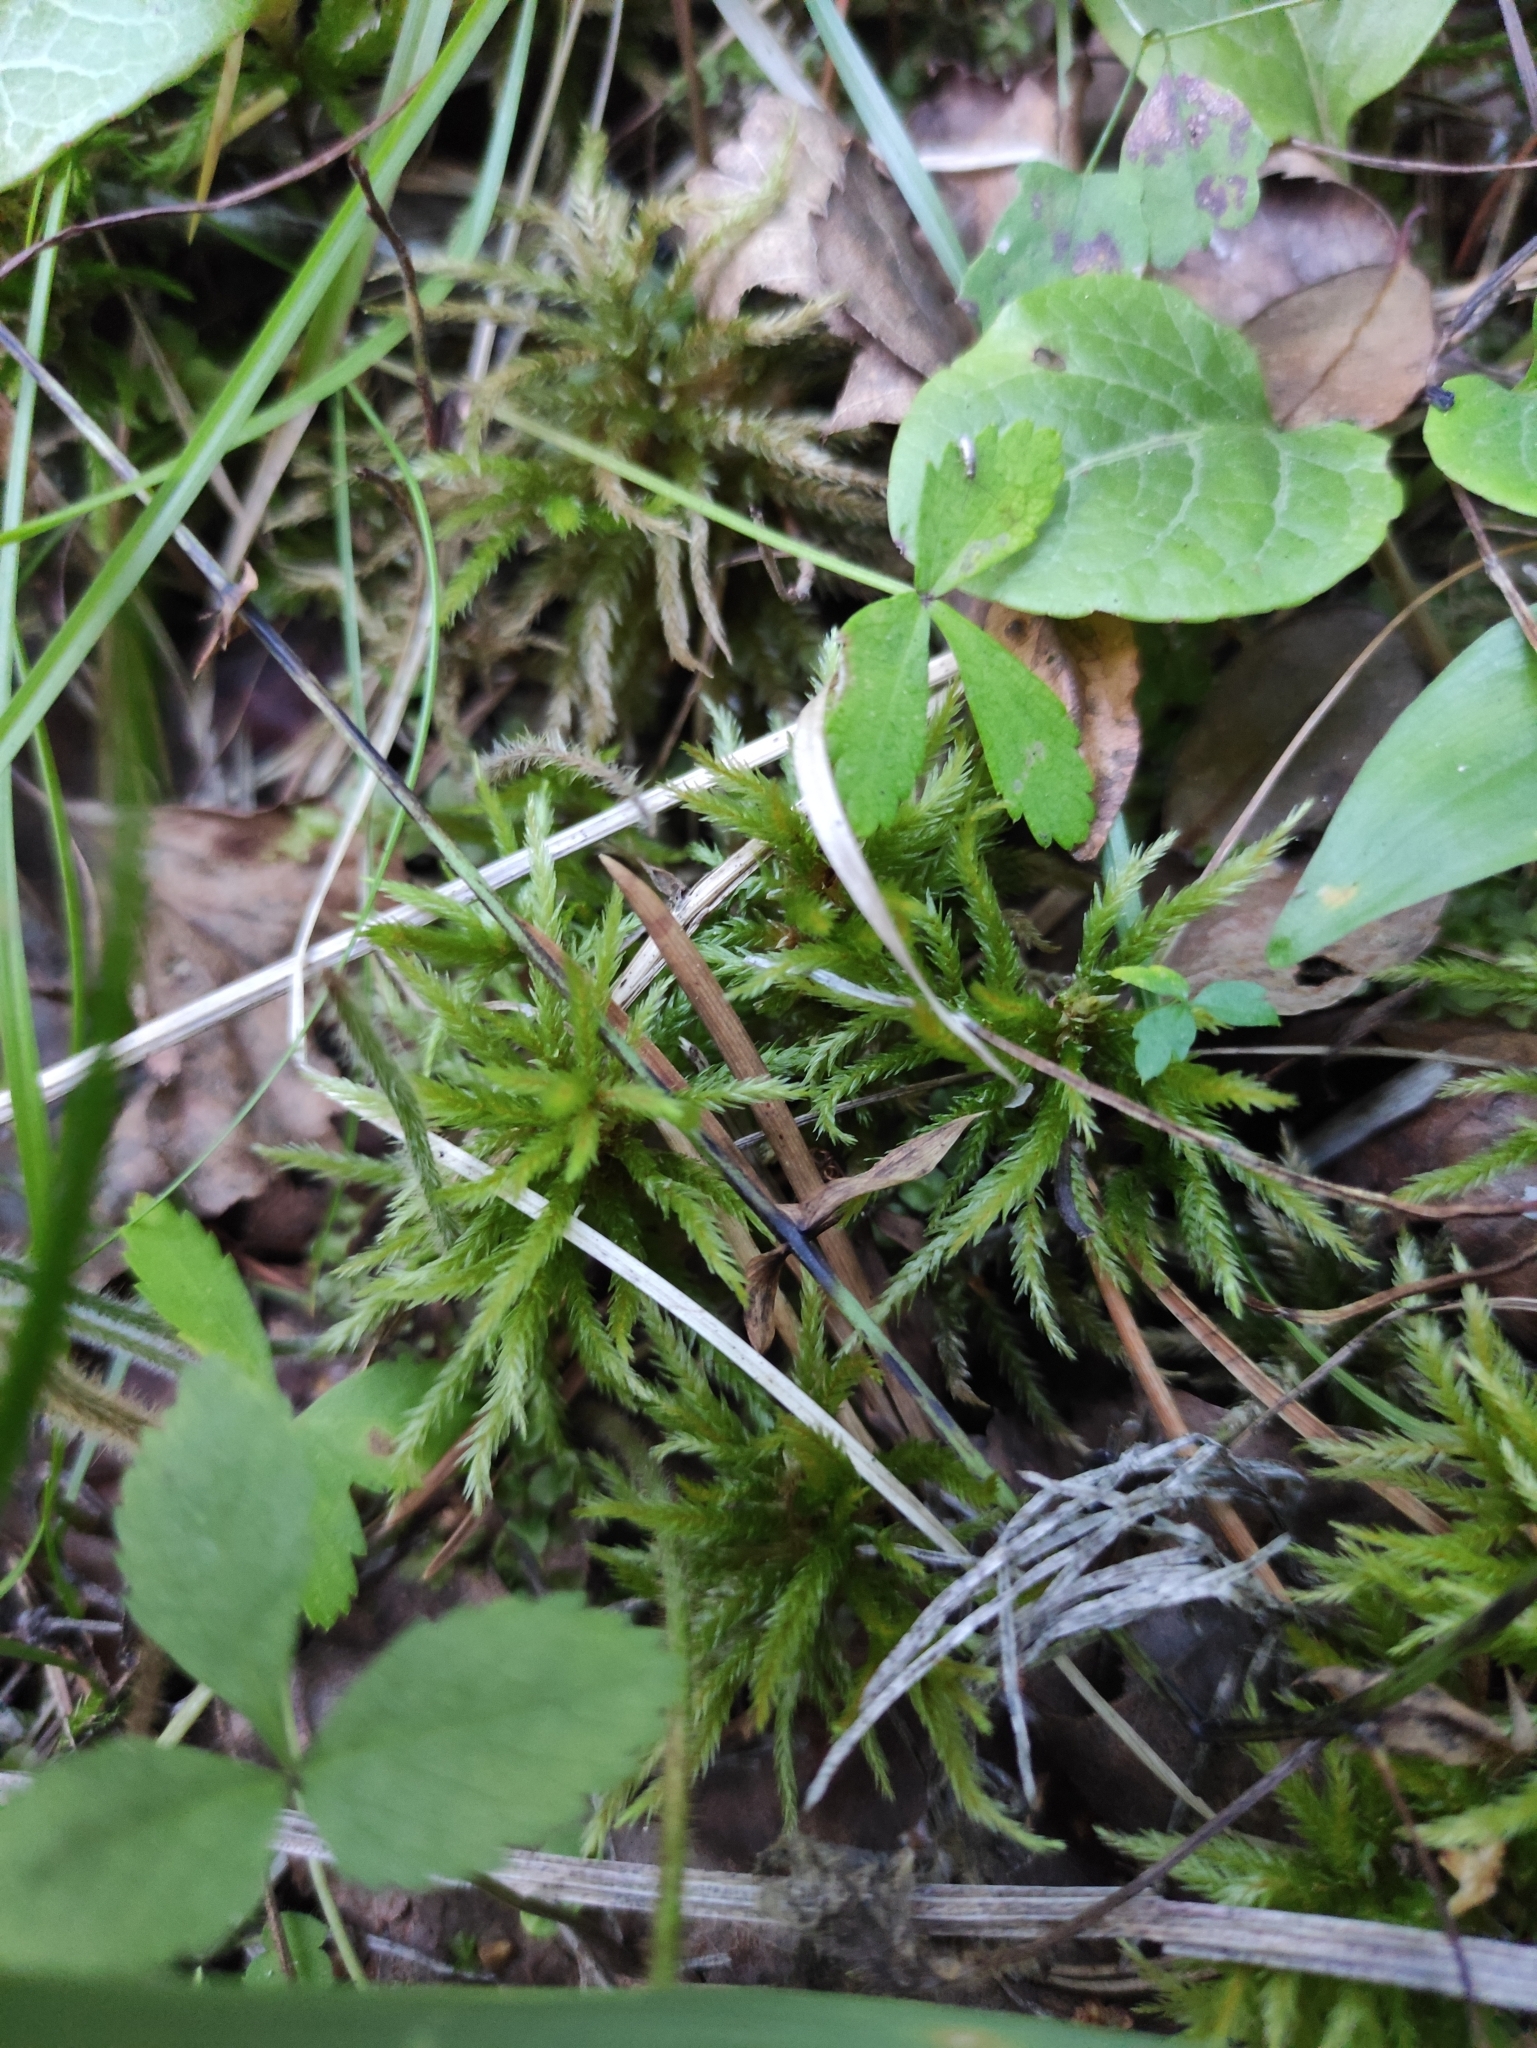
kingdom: Plantae
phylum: Bryophyta
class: Bryopsida
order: Hypnales
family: Climaciaceae
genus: Climacium
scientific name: Climacium dendroides
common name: Northern tree moss
